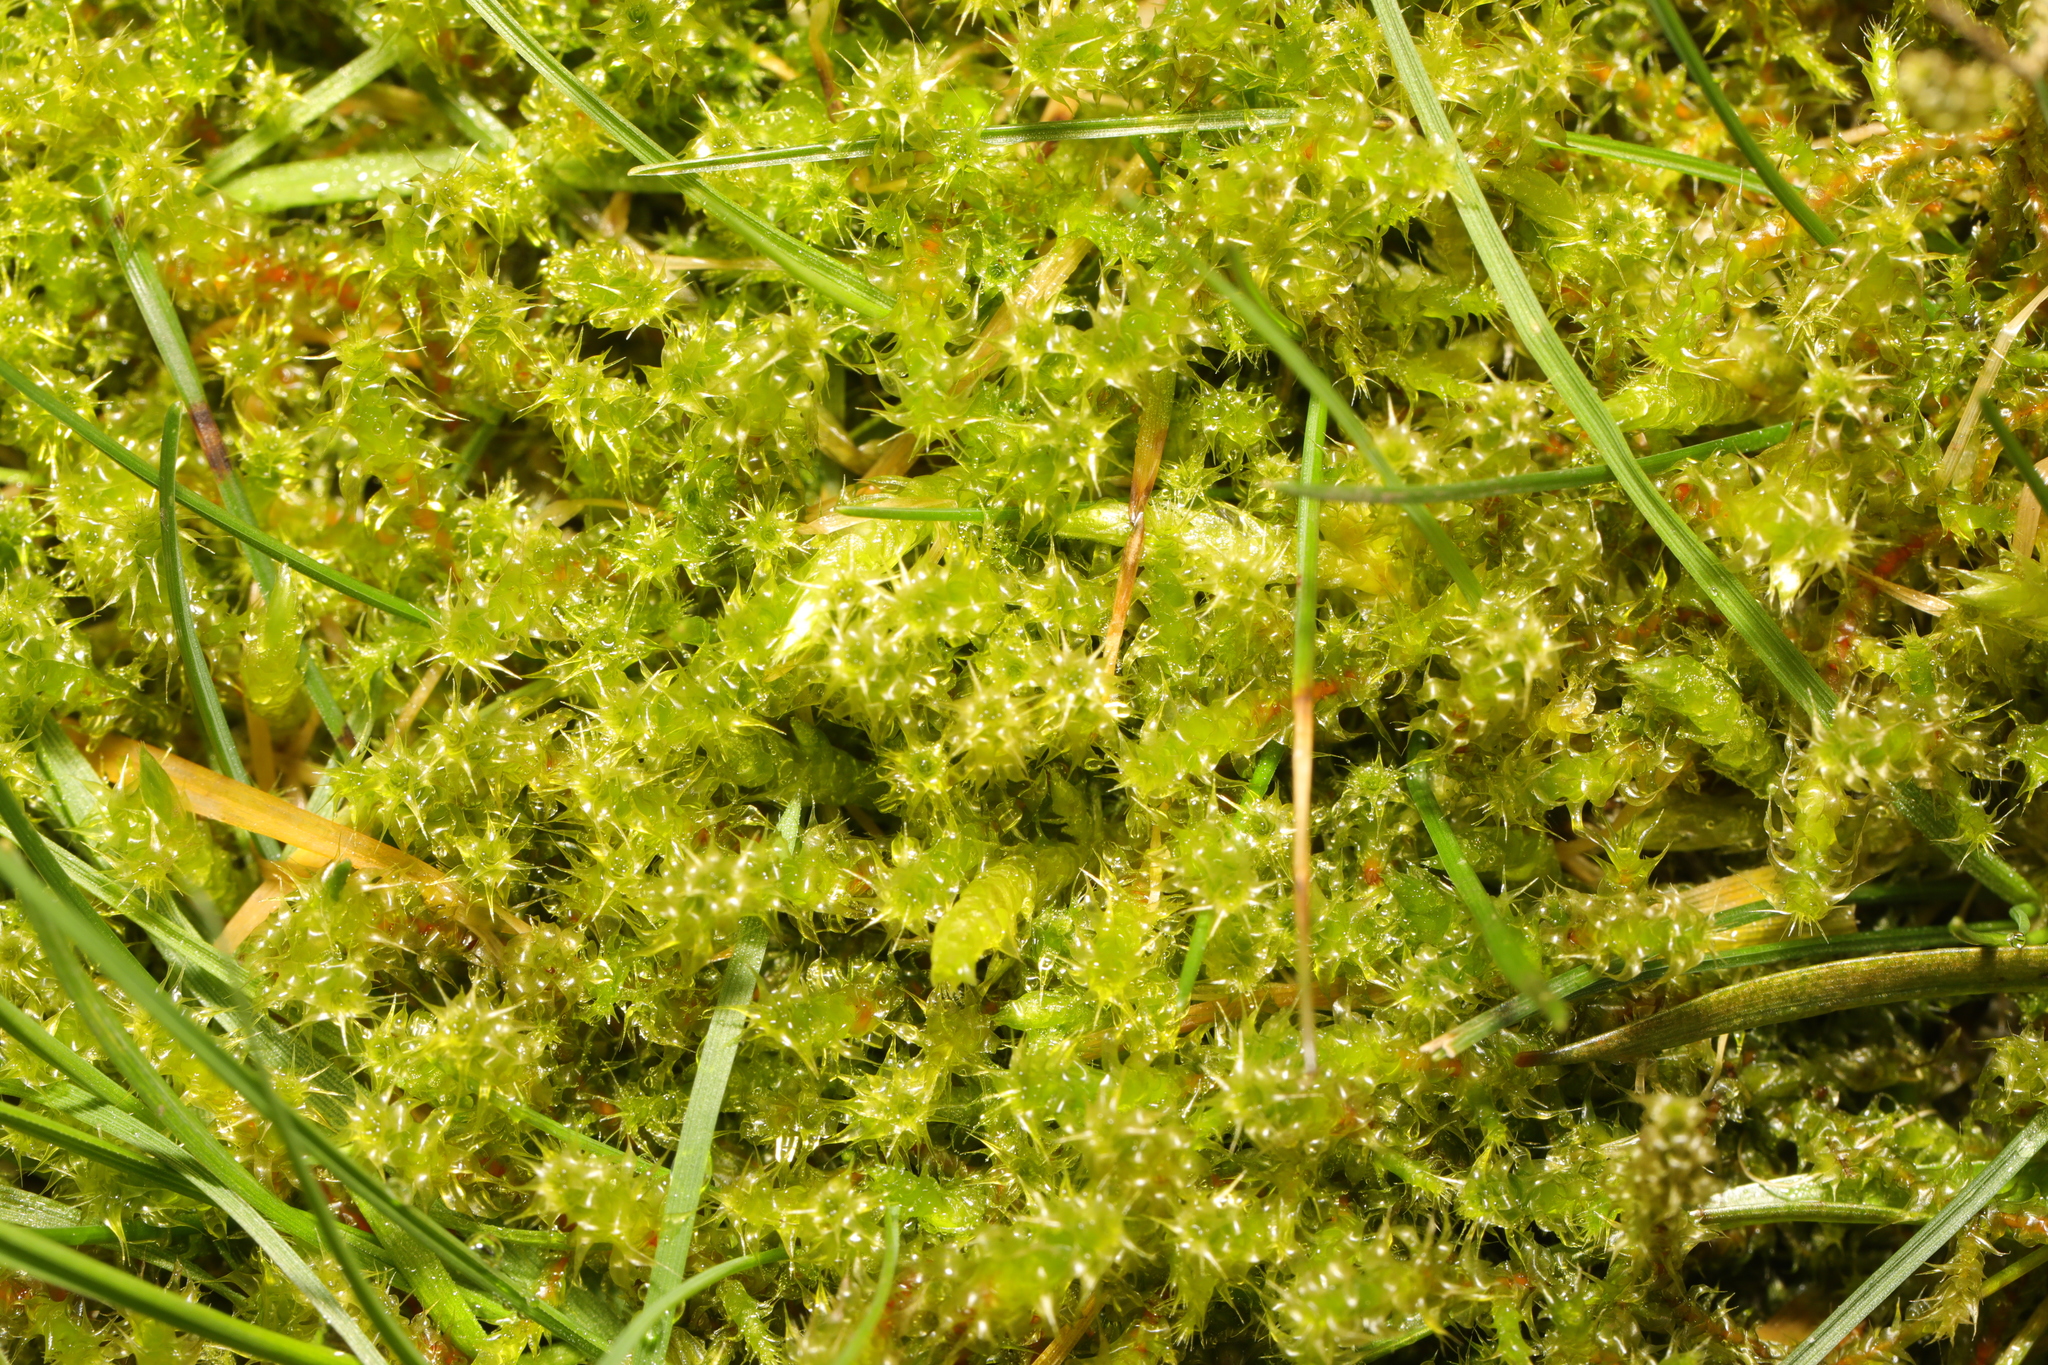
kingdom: Plantae
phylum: Bryophyta
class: Bryopsida
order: Hypnales
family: Hylocomiaceae
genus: Rhytidiadelphus
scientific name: Rhytidiadelphus squarrosus
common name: Springy turf-moss
